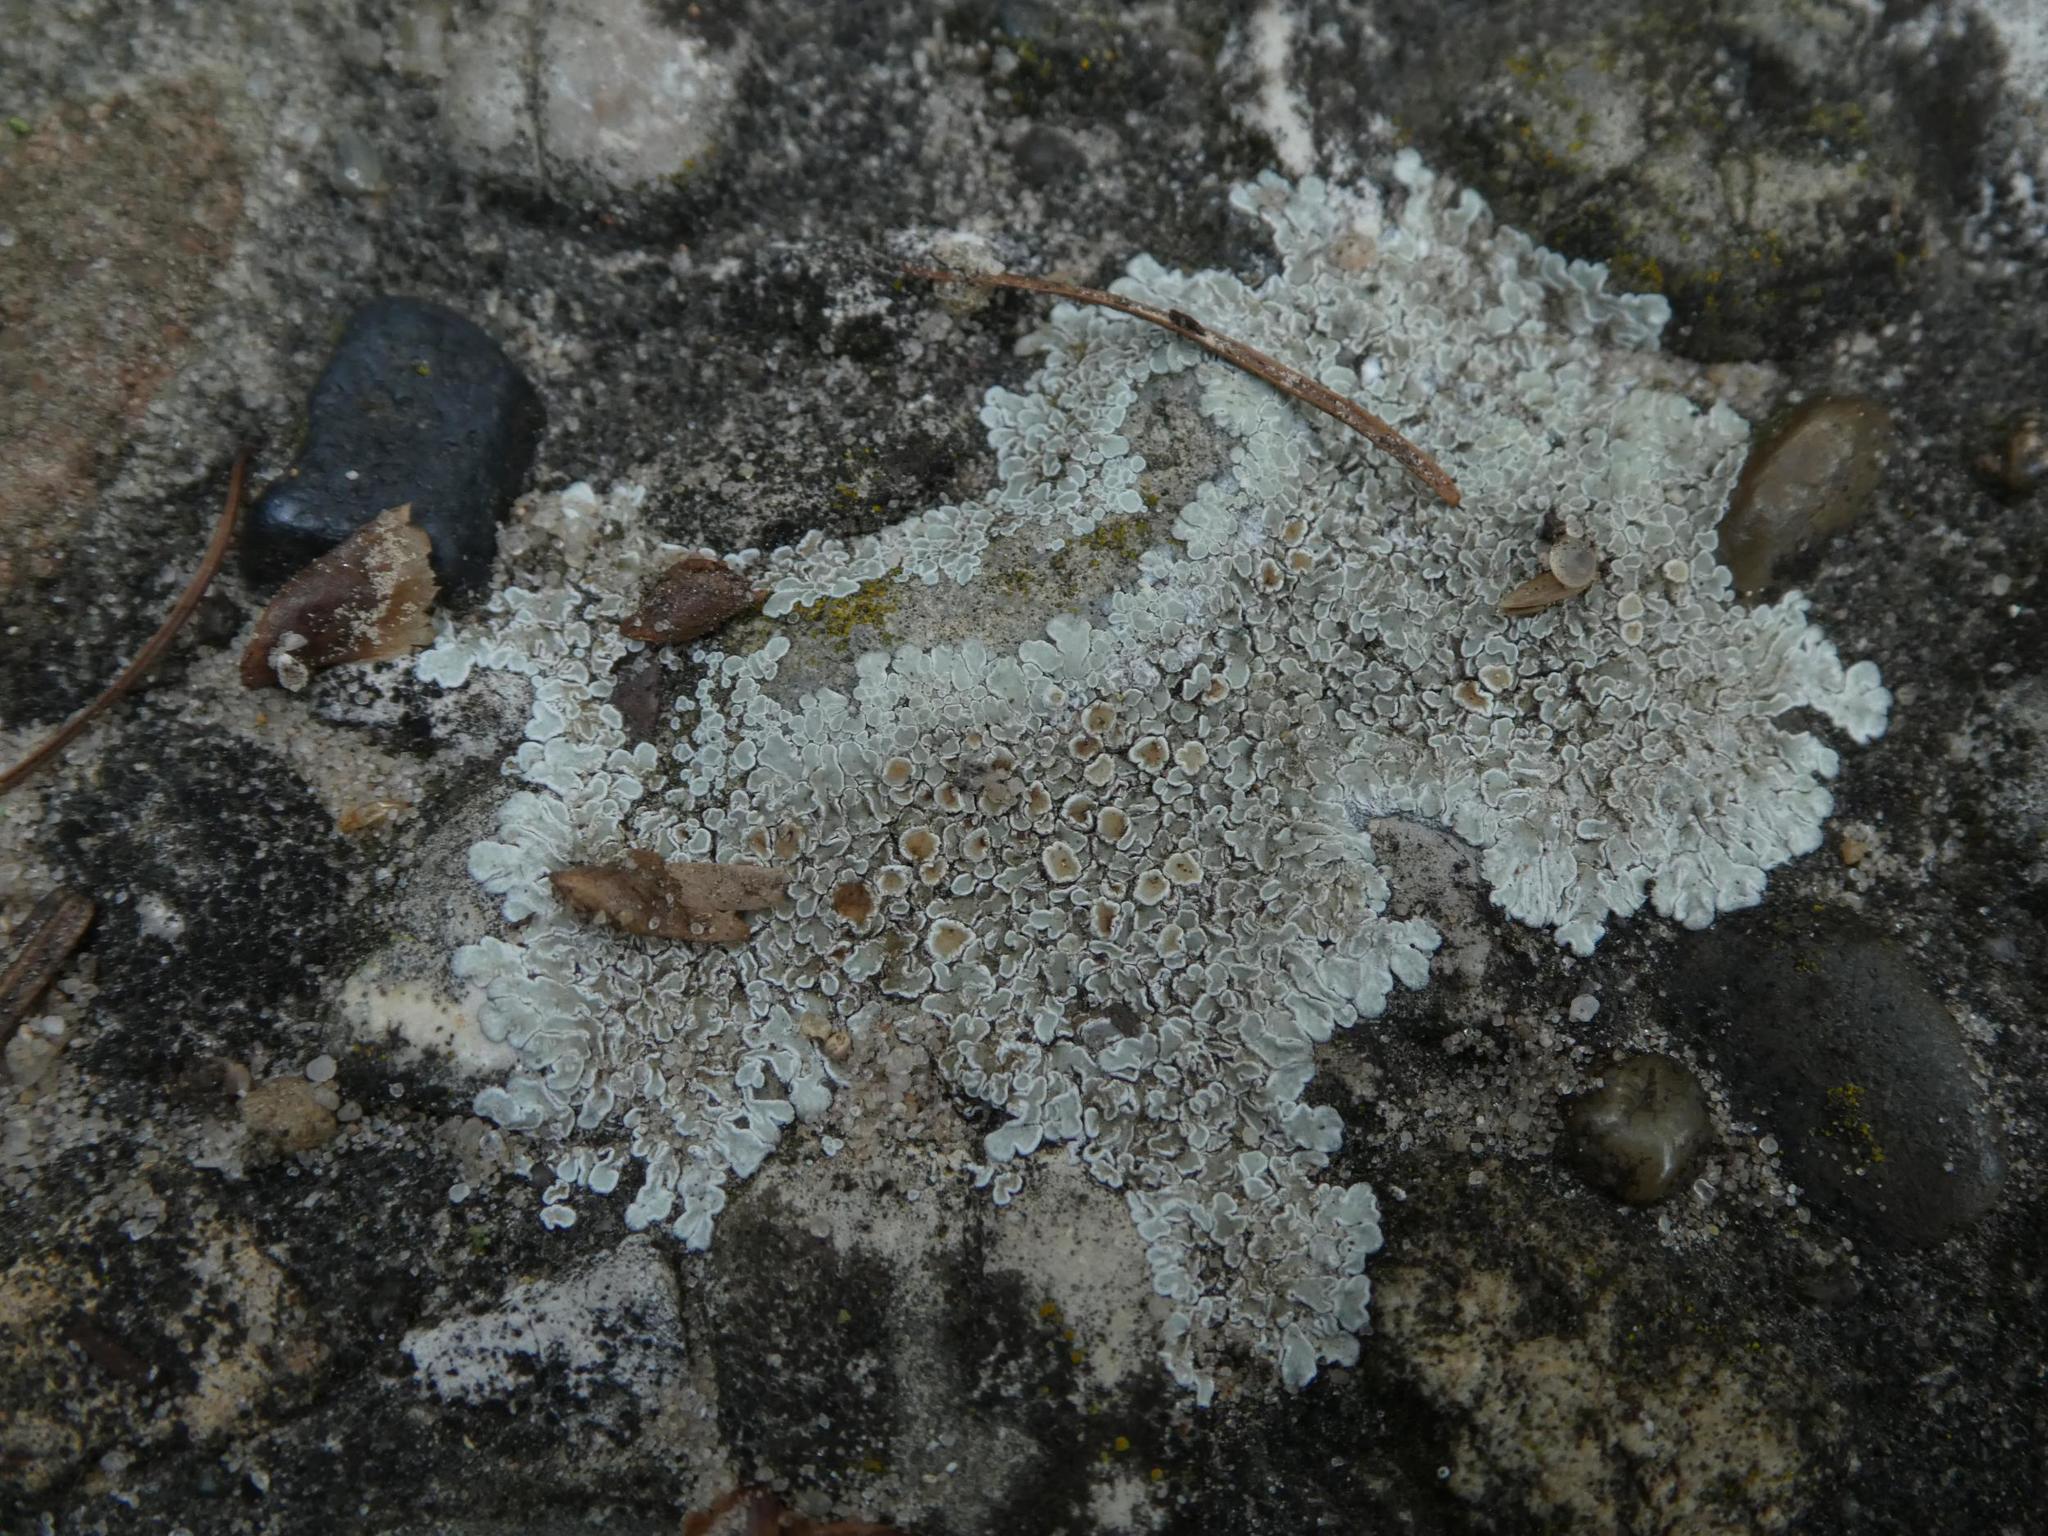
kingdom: Fungi
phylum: Ascomycota
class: Lecanoromycetes
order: Lecanorales
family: Lecanoraceae
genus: Protoparmeliopsis
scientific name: Protoparmeliopsis muralis
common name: Stonewall rim lichen
